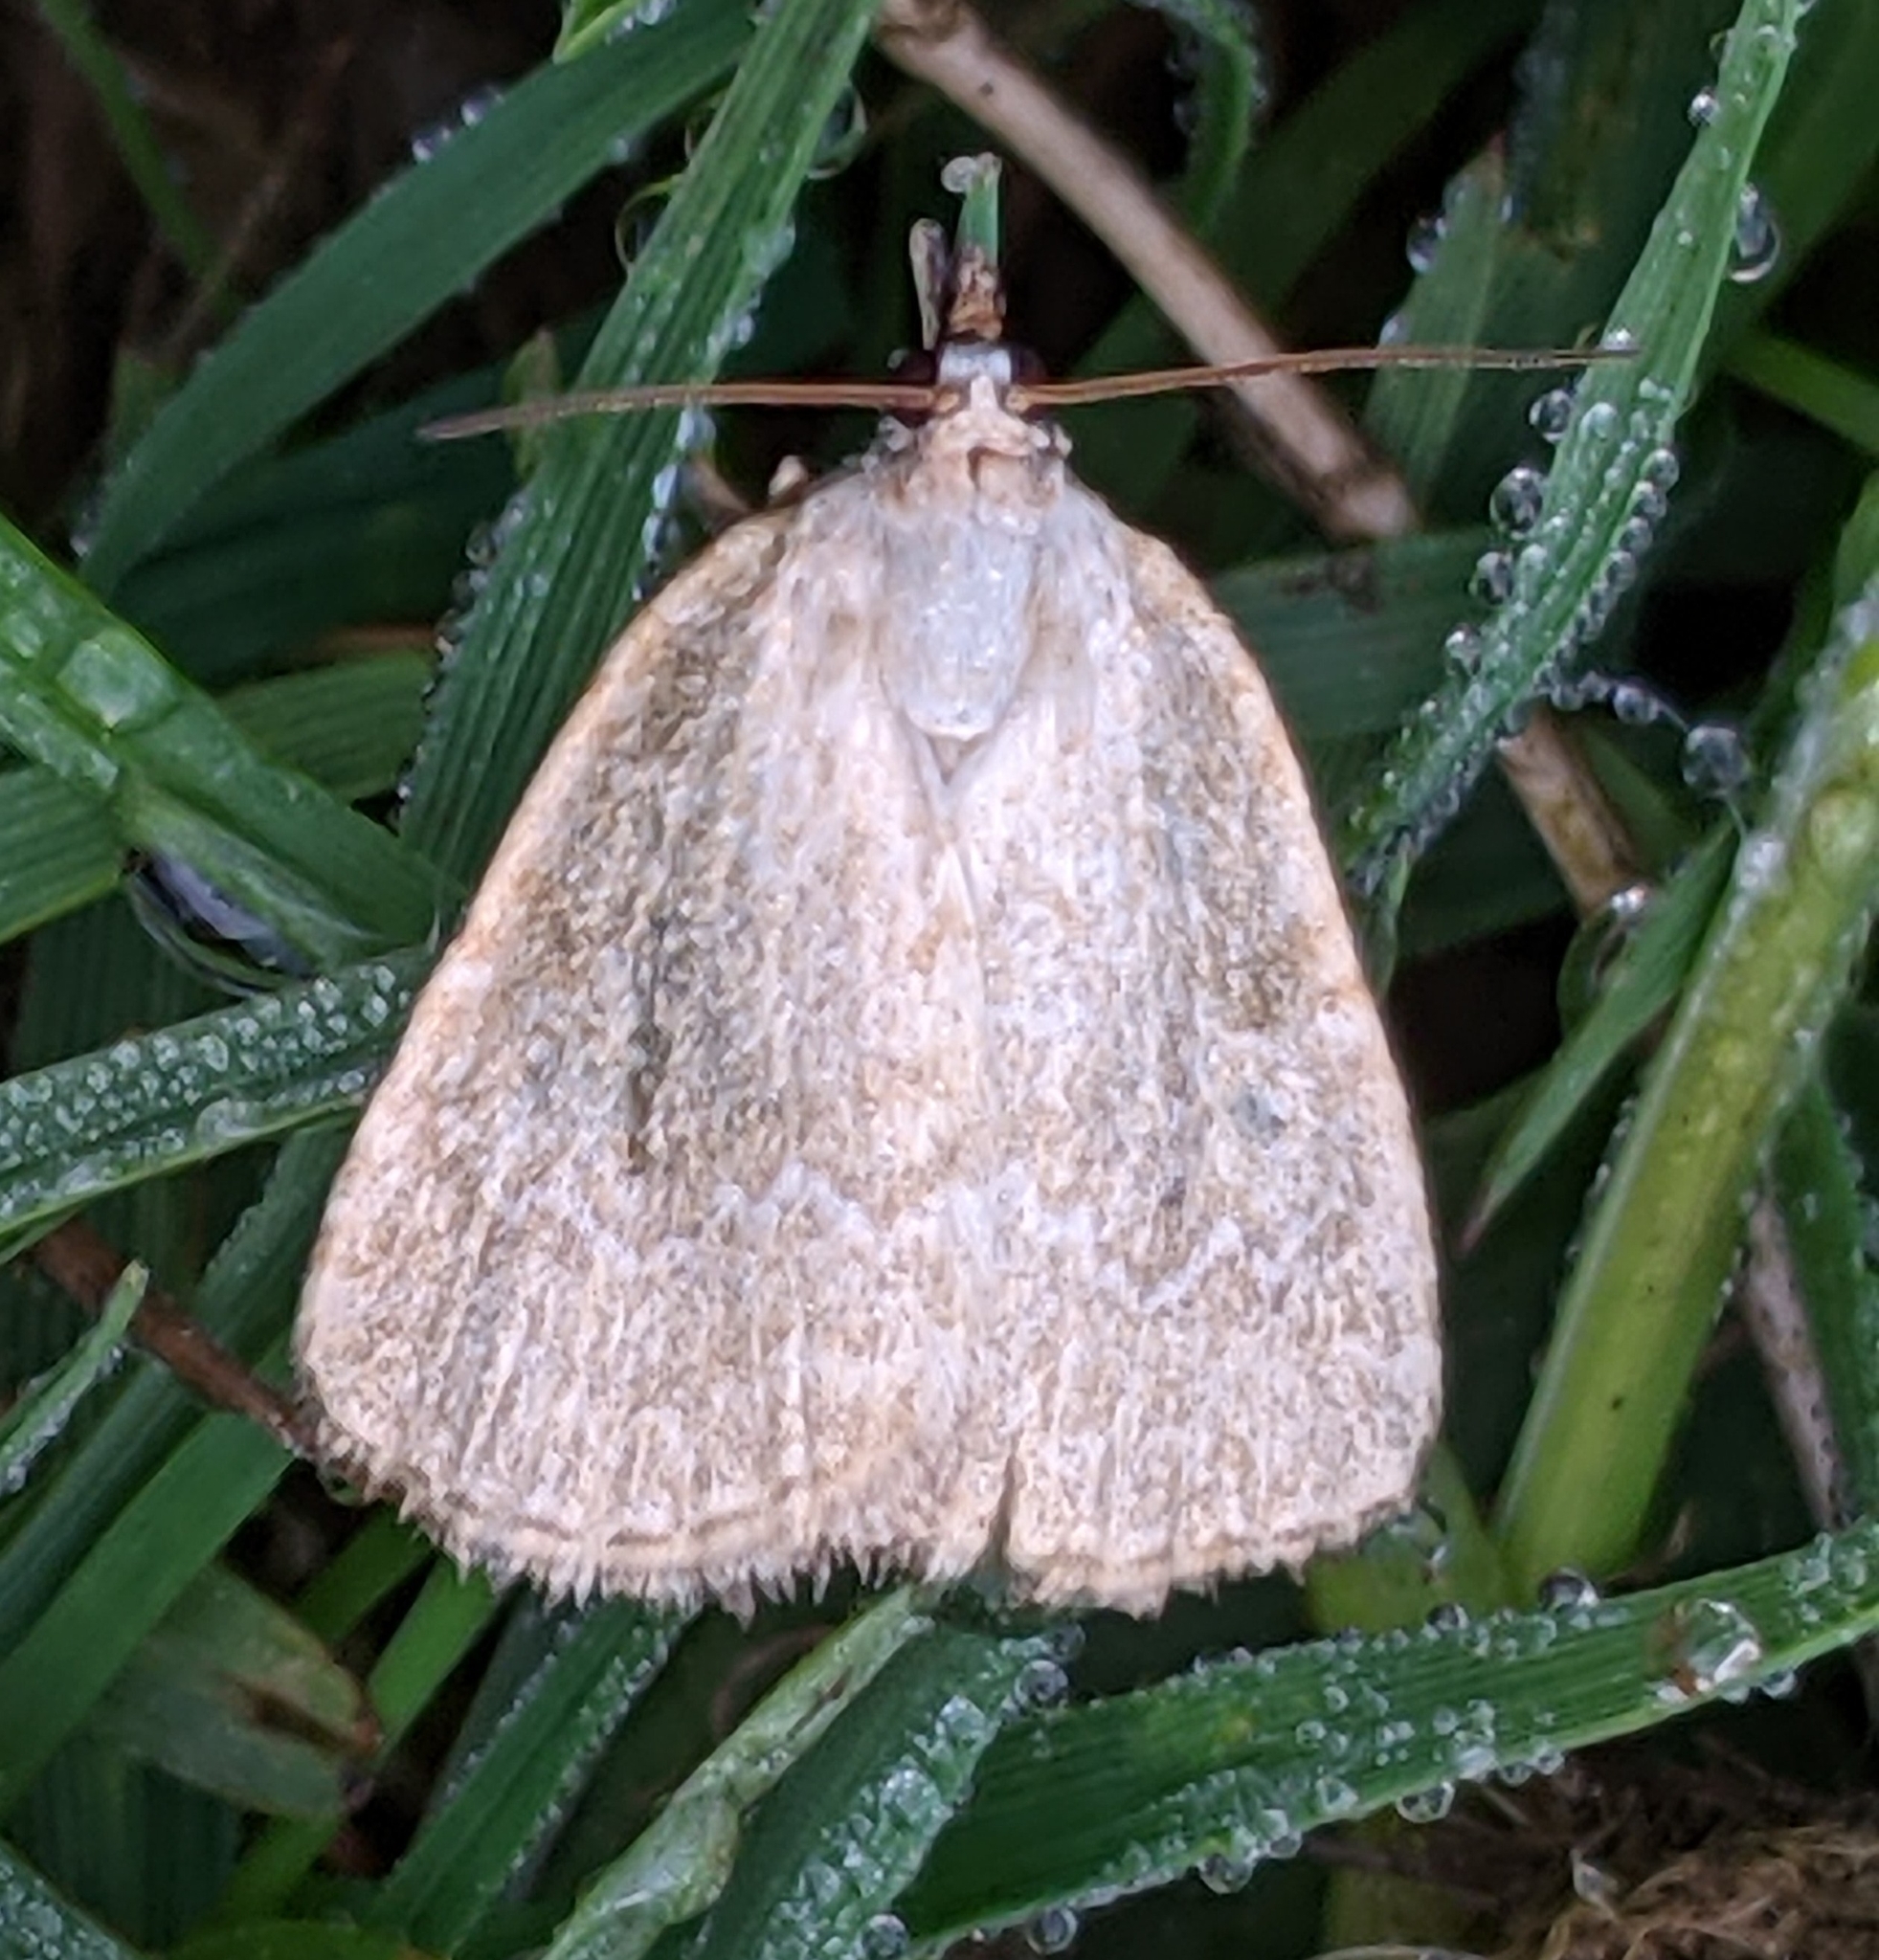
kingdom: Animalia
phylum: Arthropoda
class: Insecta
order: Lepidoptera
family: Noctuidae
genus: Protodeltote
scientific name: Protodeltote albidula
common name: Pale glyph
